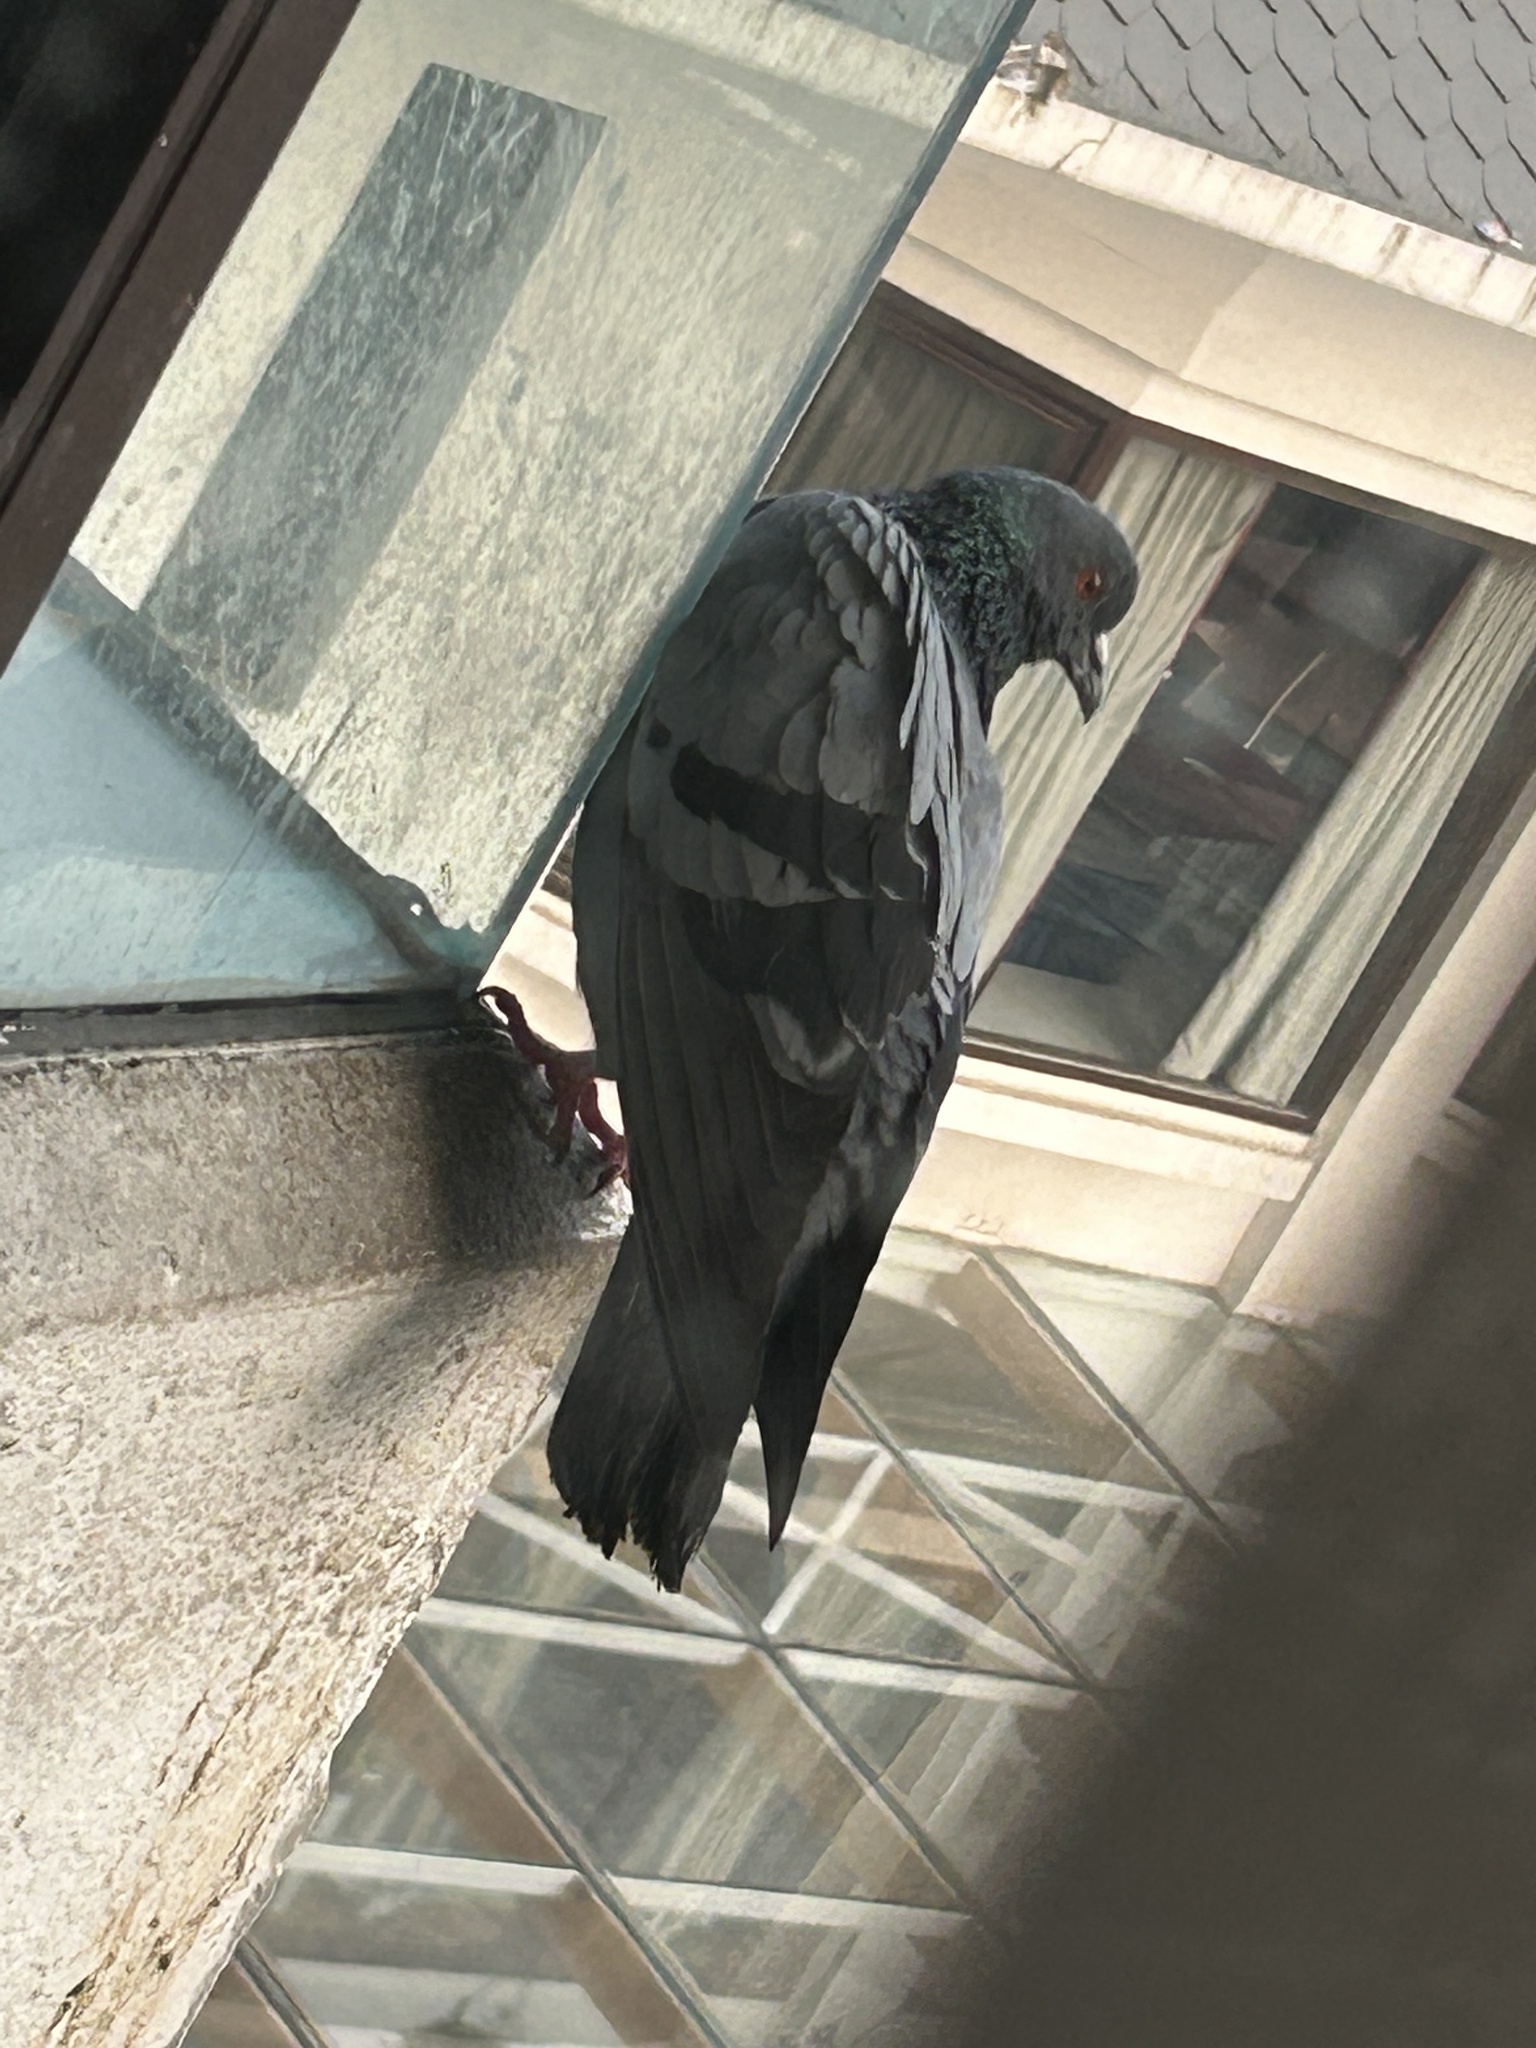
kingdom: Animalia
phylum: Chordata
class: Aves
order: Columbiformes
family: Columbidae
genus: Columba
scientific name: Columba livia
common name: Rock pigeon
